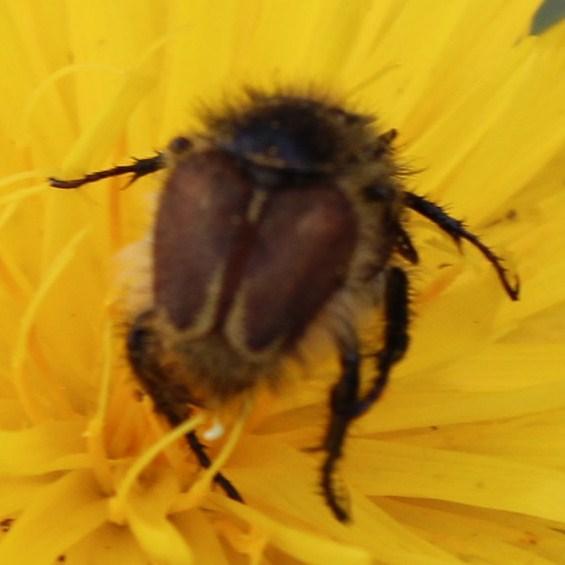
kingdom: Animalia
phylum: Arthropoda
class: Insecta
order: Coleoptera
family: Scarabaeidae
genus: Khoina
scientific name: Khoina bilateralis
